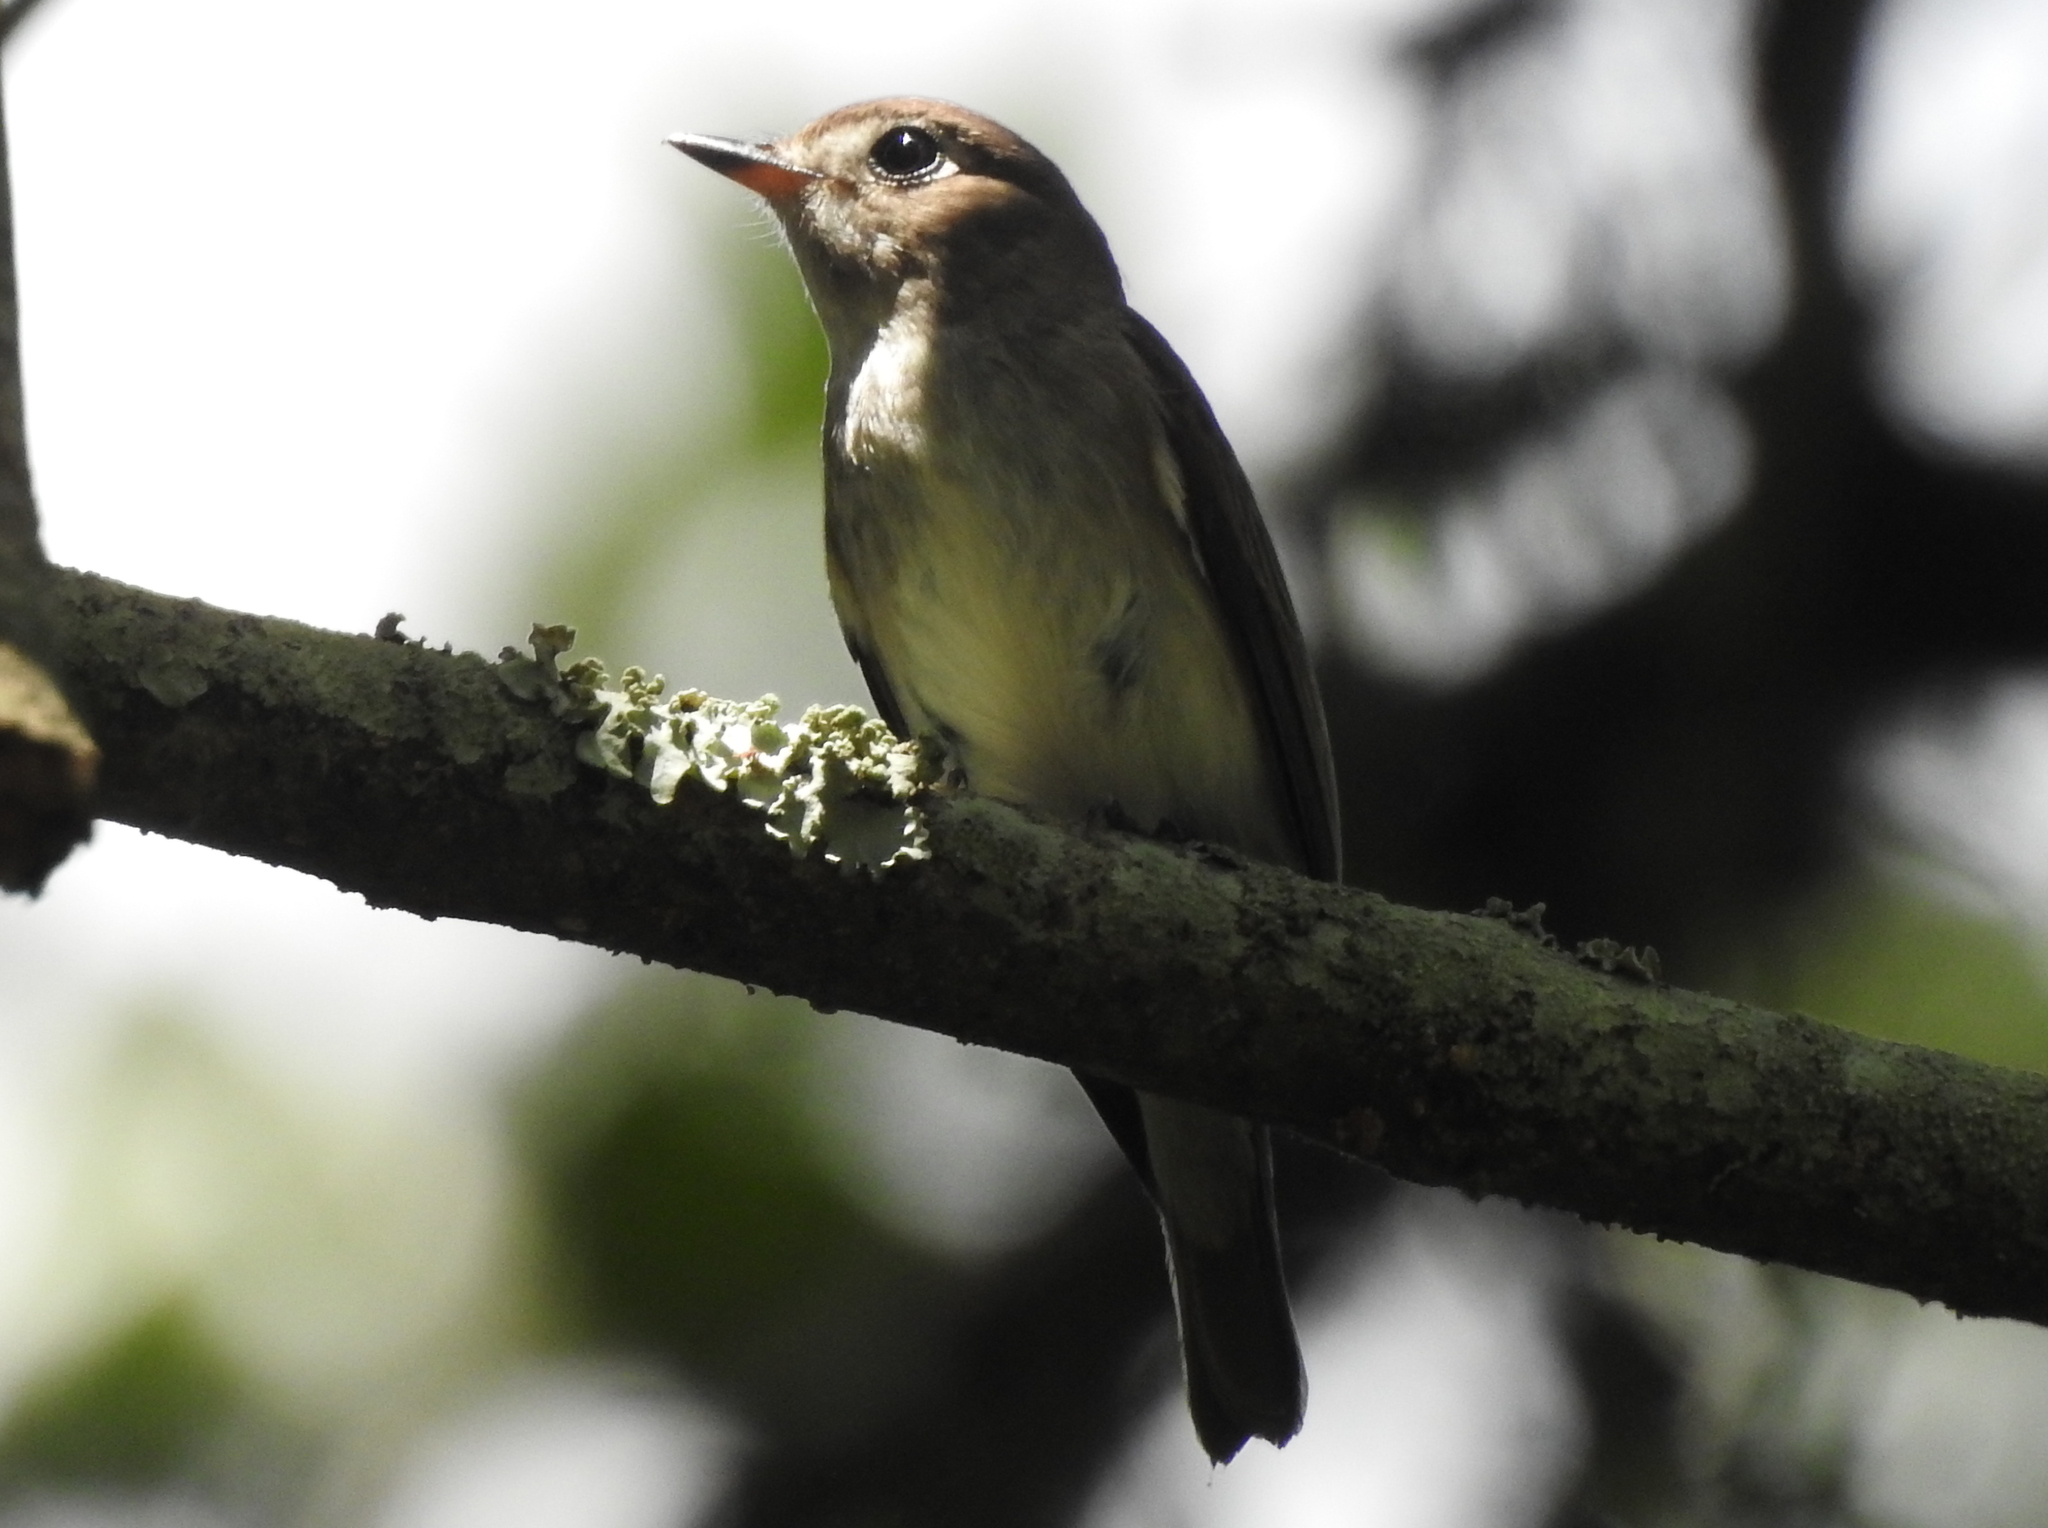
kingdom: Animalia
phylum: Chordata
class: Aves
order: Passeriformes
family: Muscicapidae
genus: Muscicapa
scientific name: Muscicapa latirostris
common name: Asian brown flycatcher
